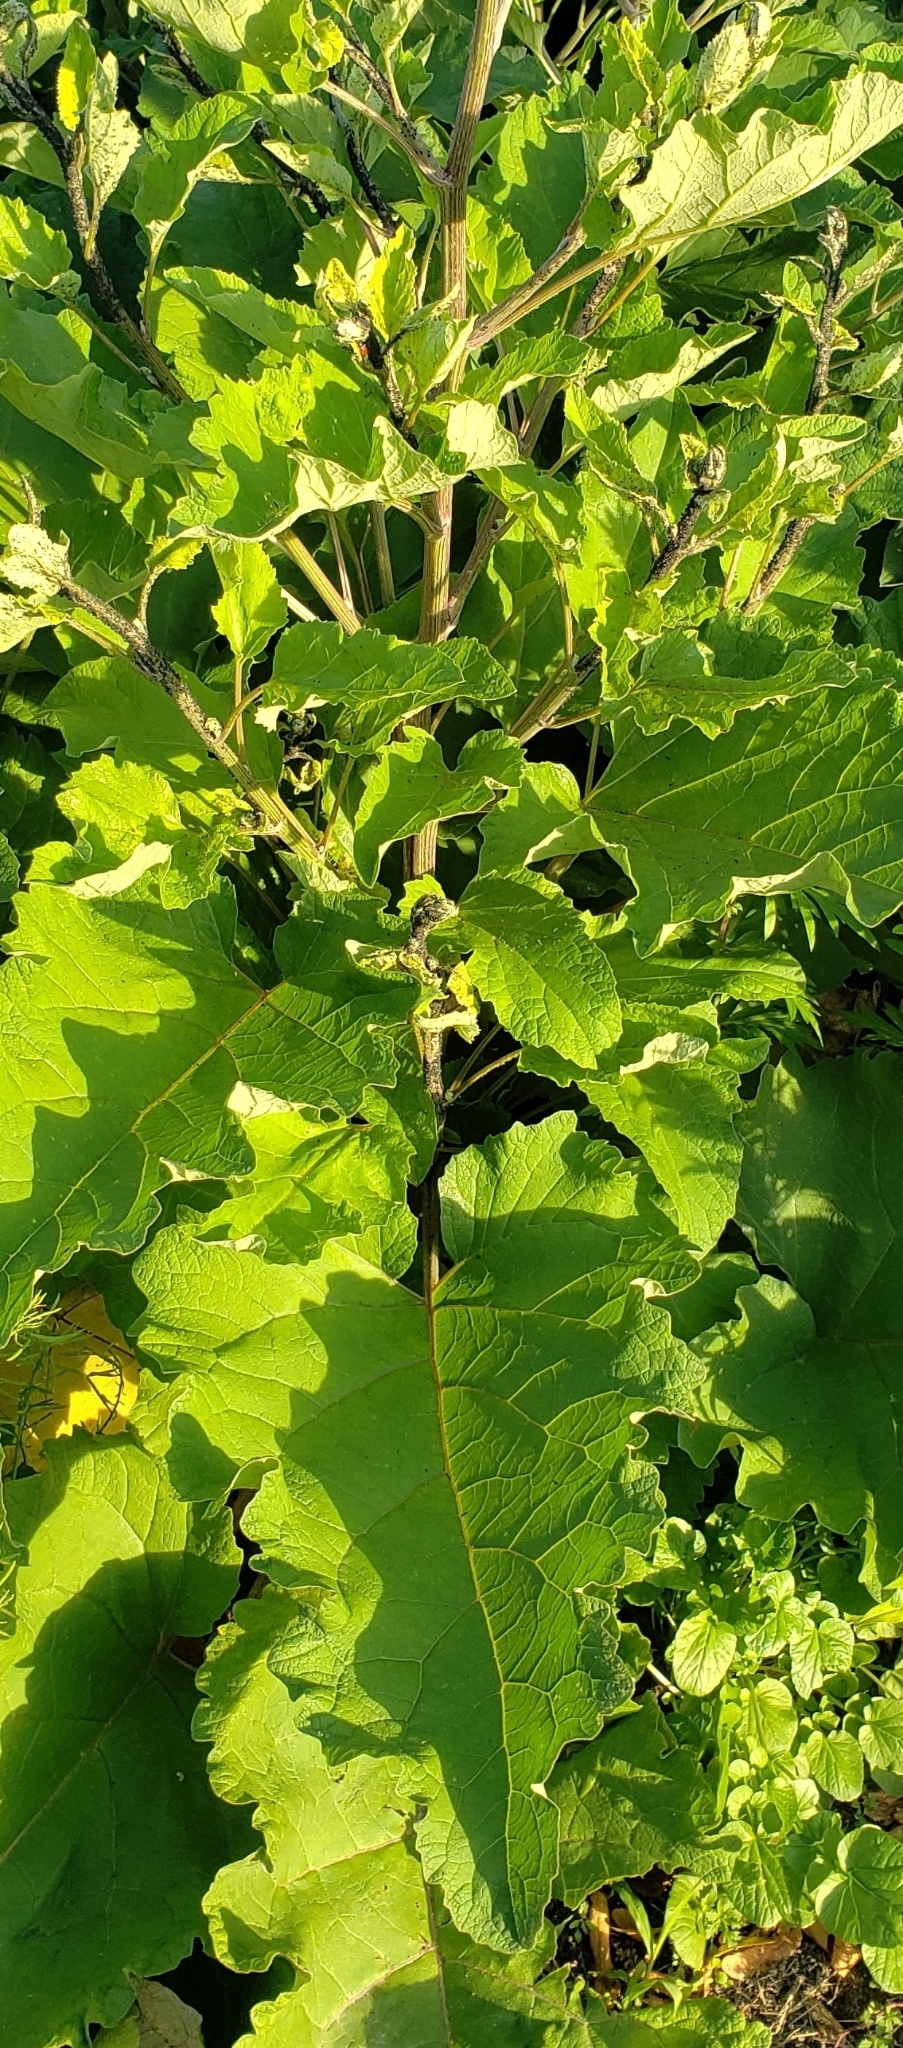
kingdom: Plantae
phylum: Tracheophyta
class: Magnoliopsida
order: Asterales
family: Asteraceae
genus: Arctium
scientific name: Arctium
